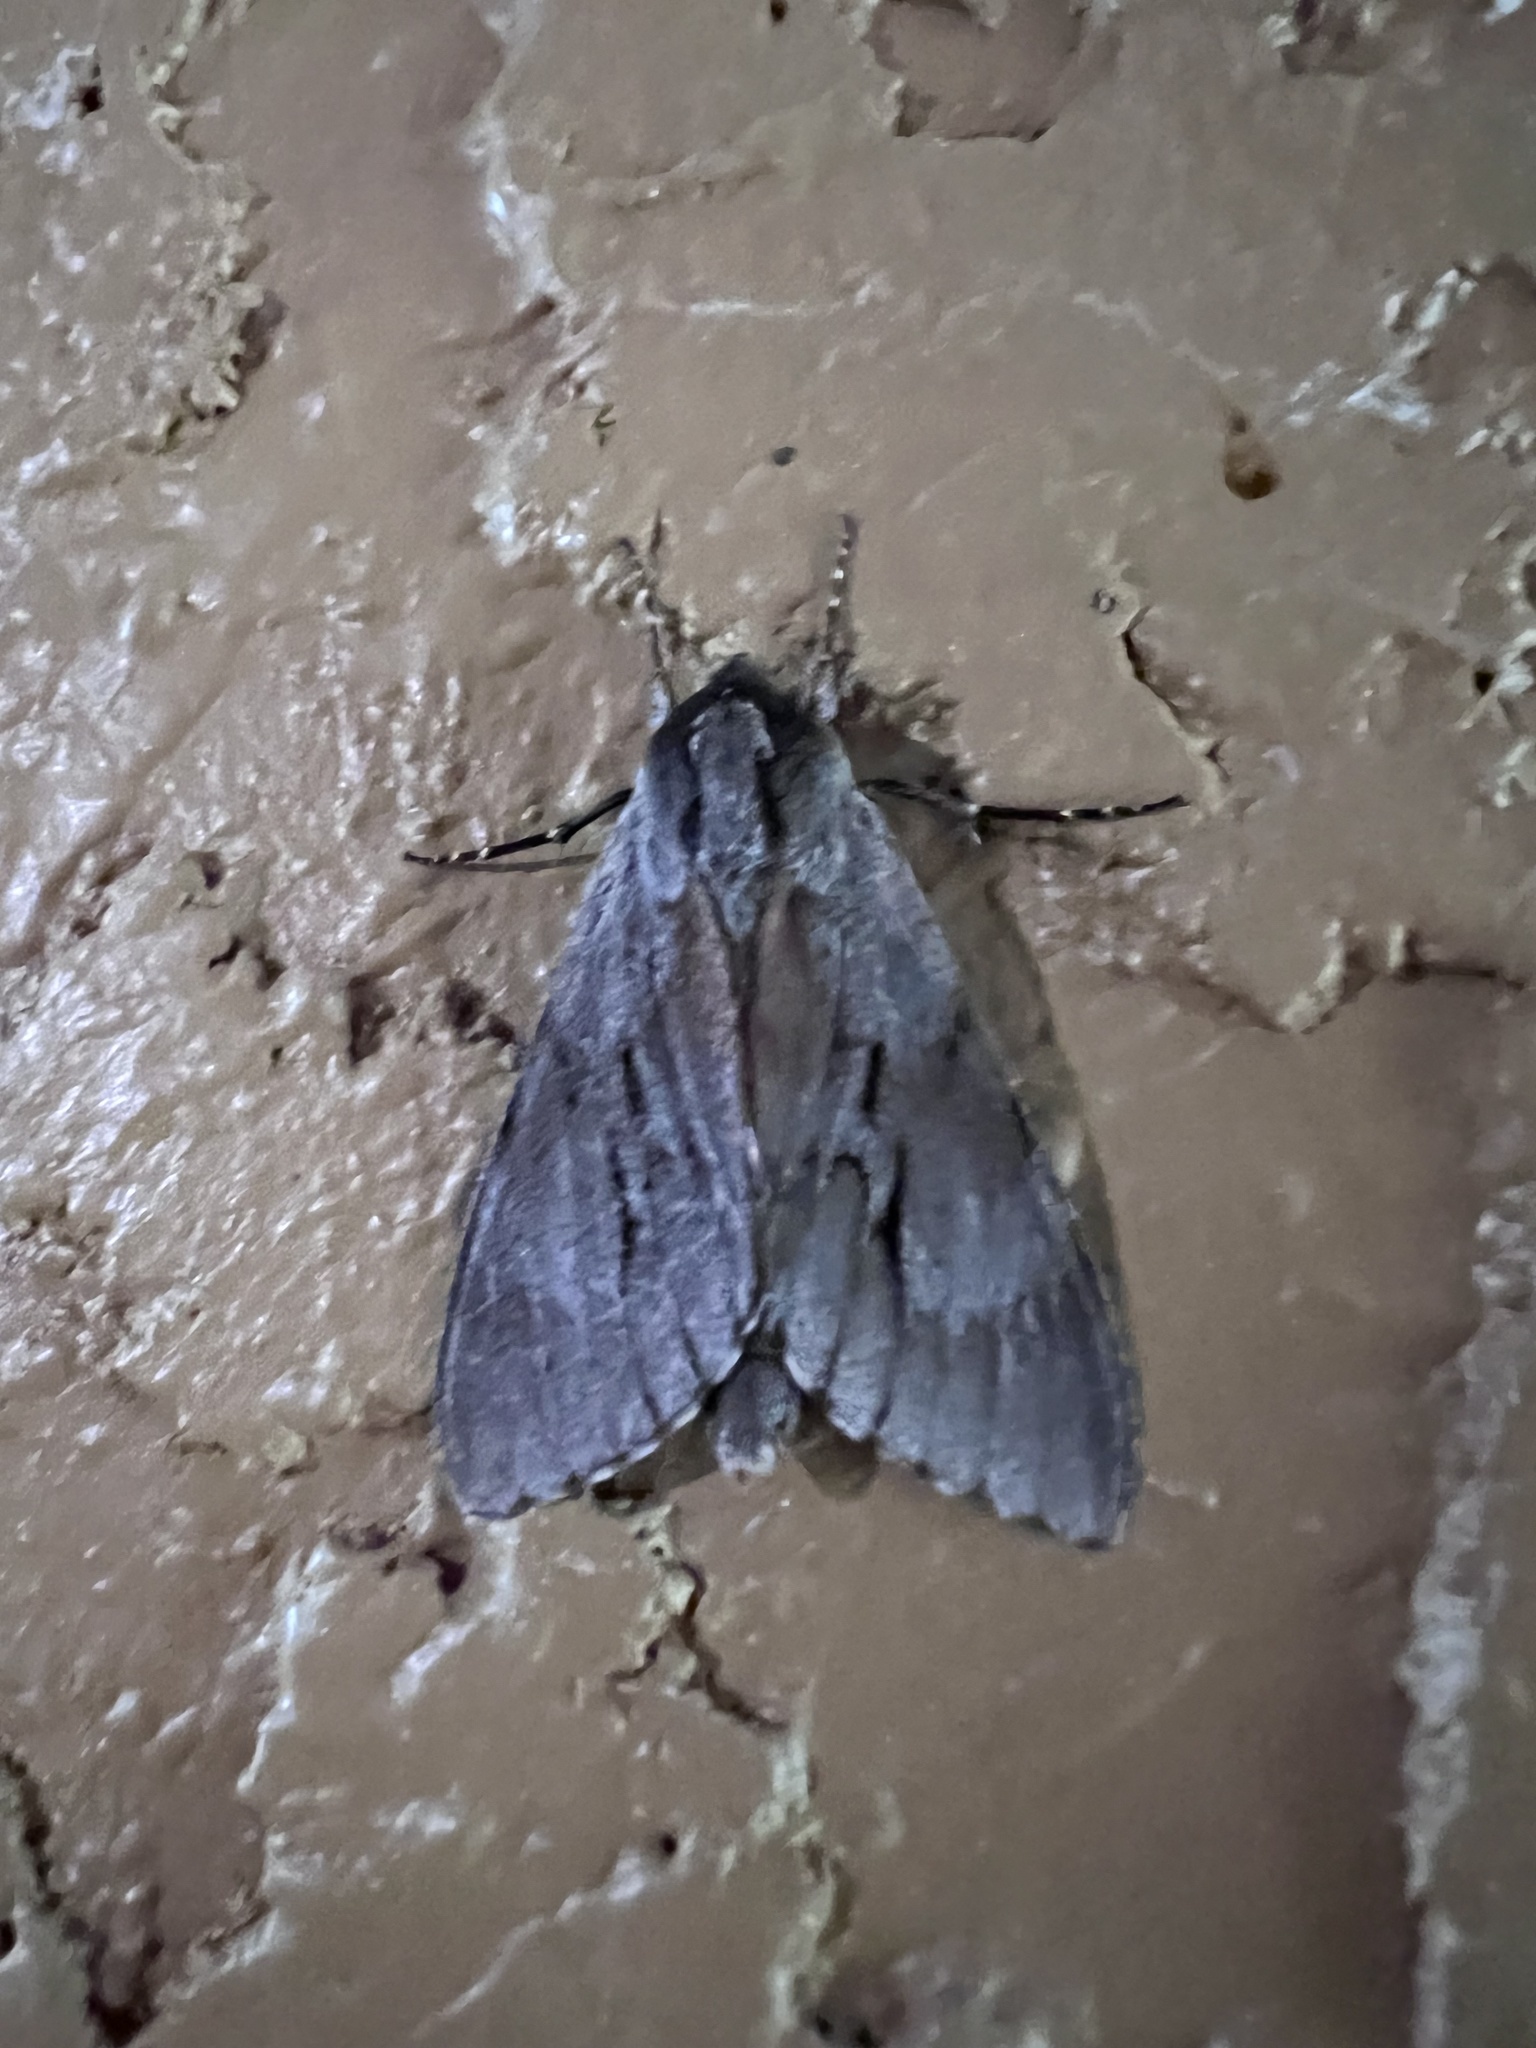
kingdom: Animalia
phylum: Arthropoda
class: Insecta
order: Lepidoptera
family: Sphingidae
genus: Lapara
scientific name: Lapara coniferarum
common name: Southern pine sphinx
